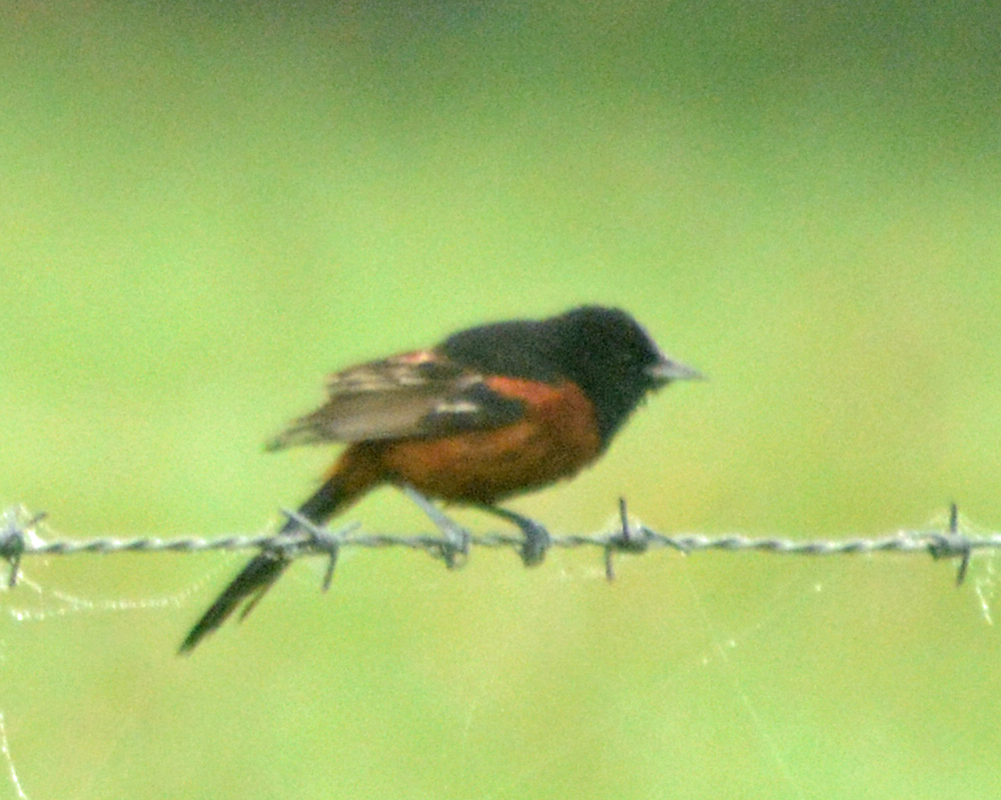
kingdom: Animalia
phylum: Chordata
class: Aves
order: Passeriformes
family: Icteridae
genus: Icterus
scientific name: Icterus spurius
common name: Orchard oriole
